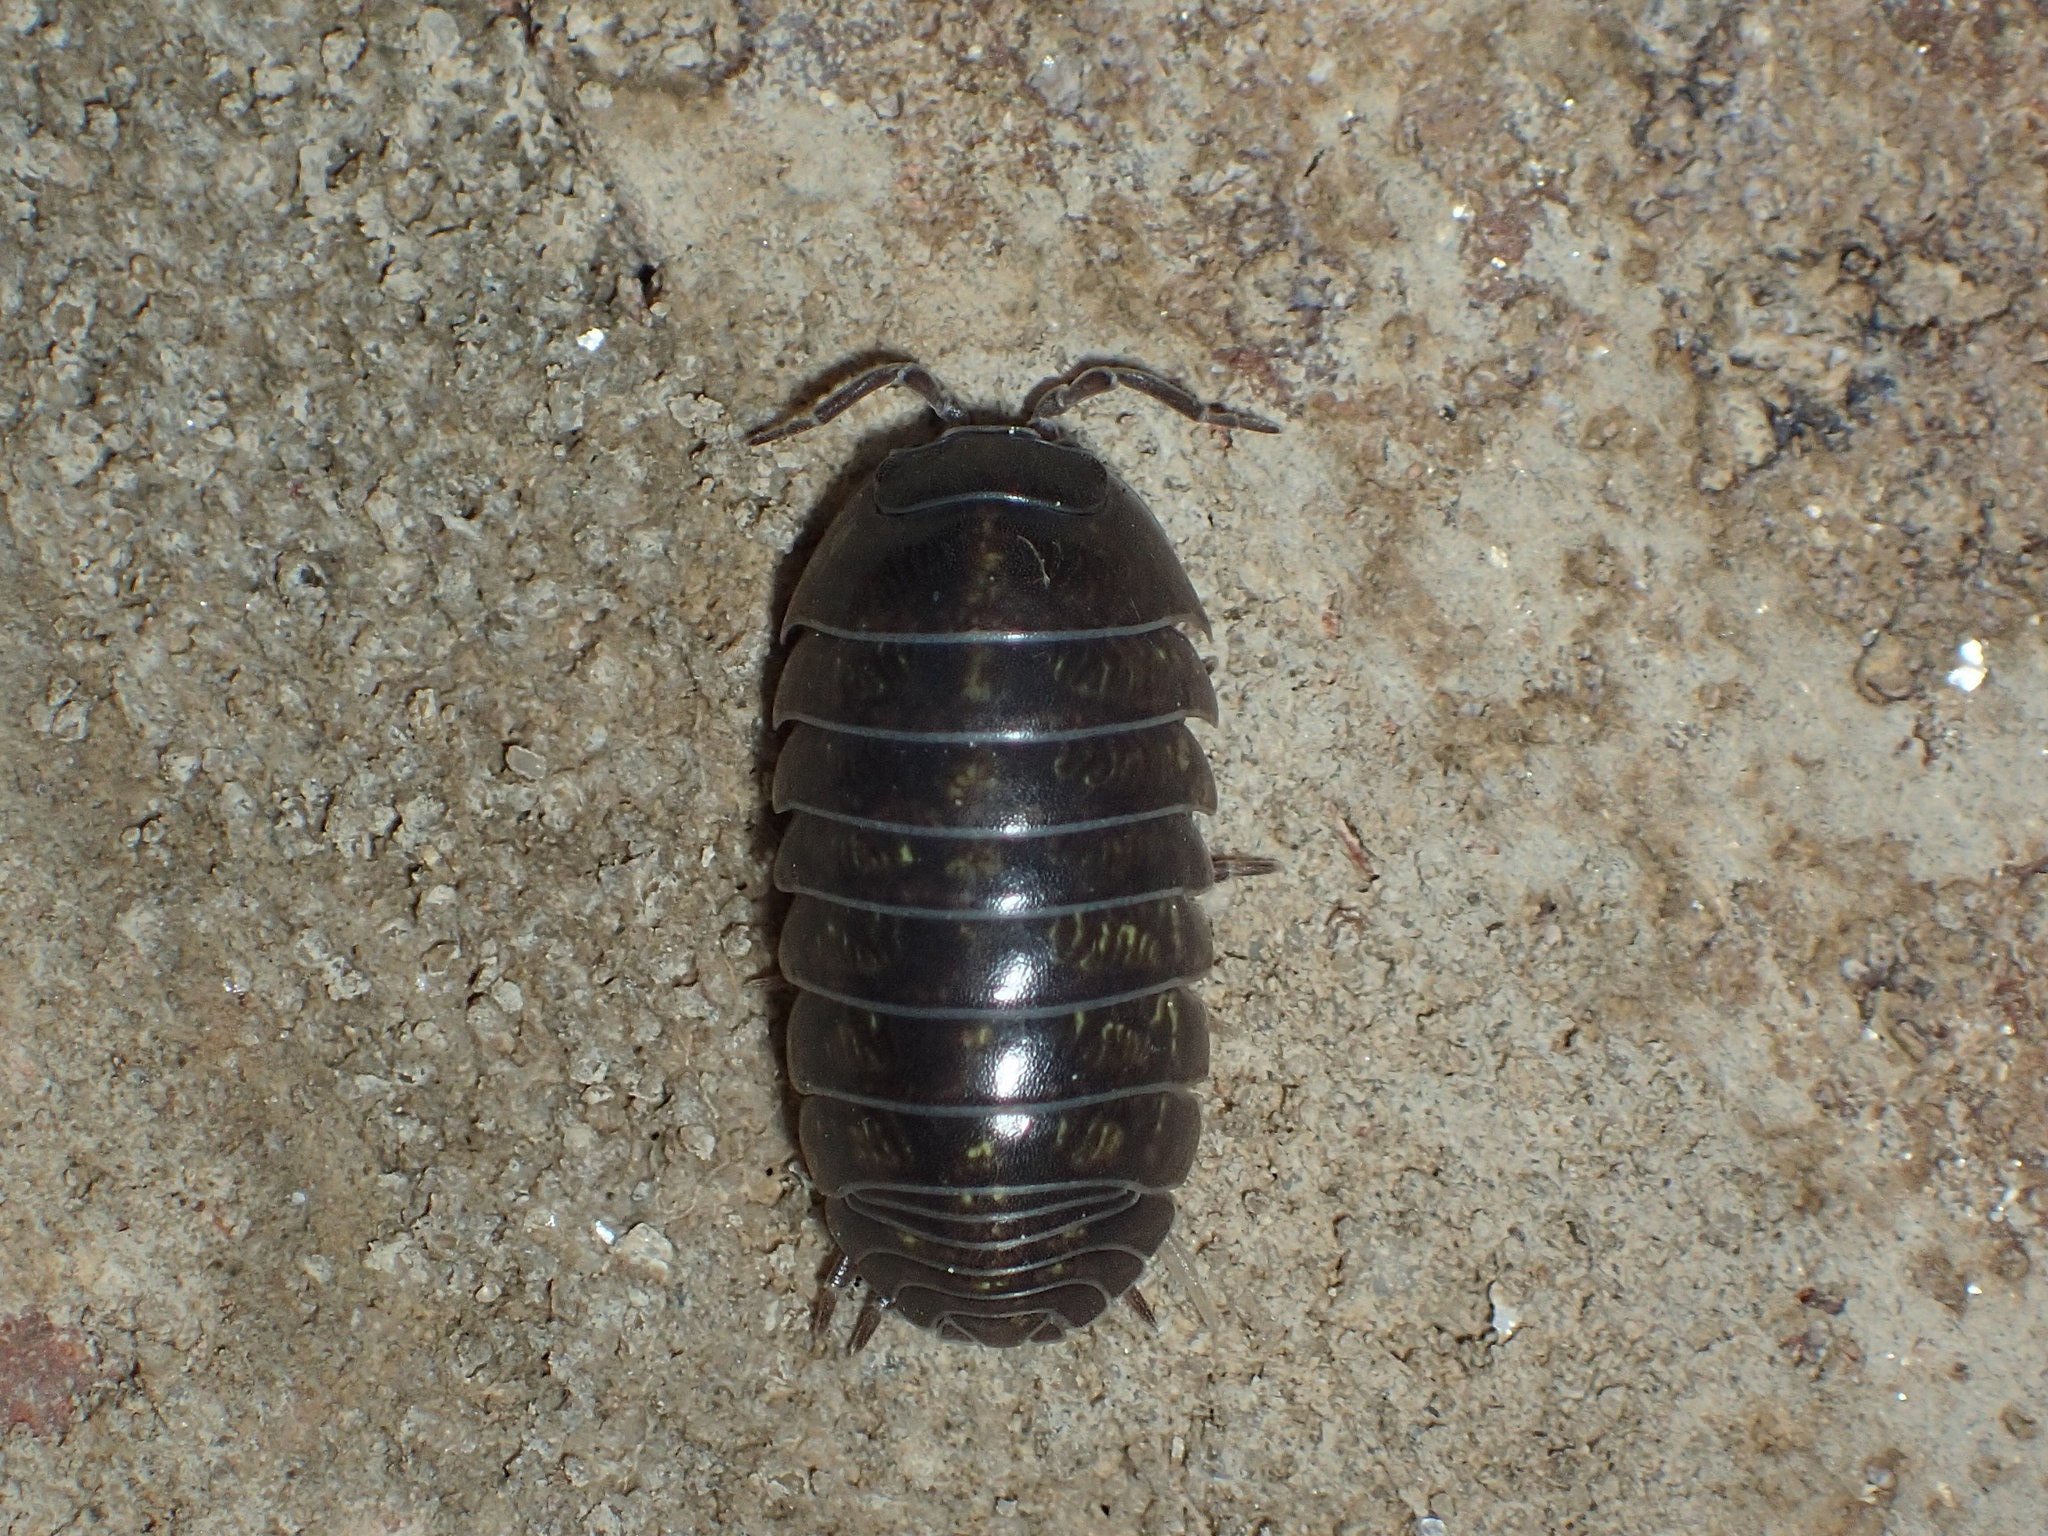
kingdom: Animalia
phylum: Arthropoda
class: Malacostraca
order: Isopoda
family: Armadillidiidae
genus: Armadillidium
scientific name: Armadillidium vulgare
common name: Common pill woodlouse
